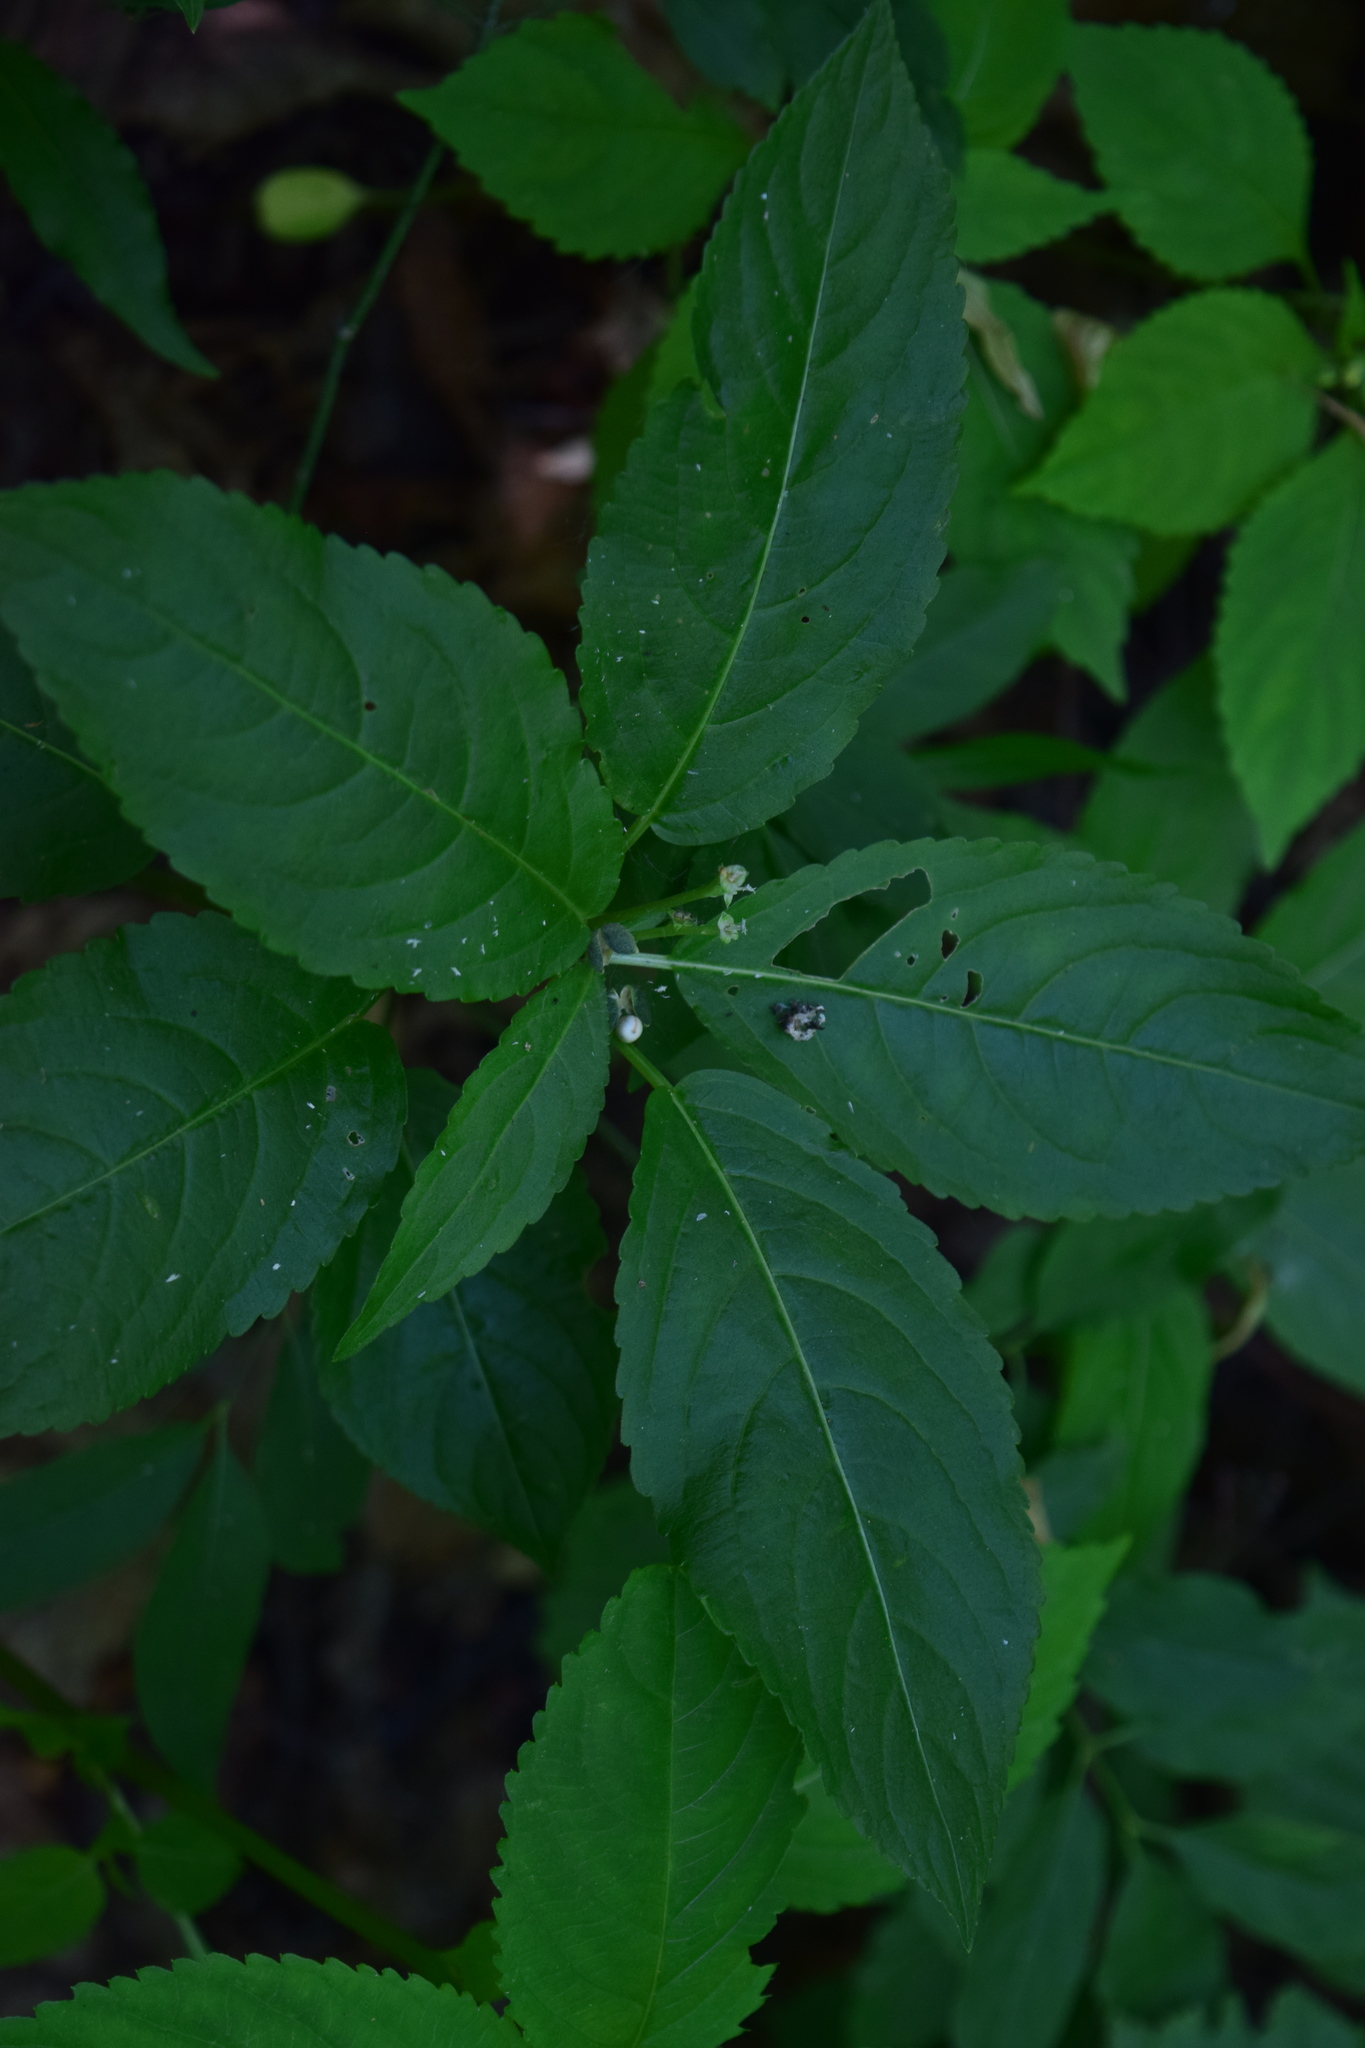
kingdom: Plantae
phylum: Tracheophyta
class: Magnoliopsida
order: Malpighiales
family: Euphorbiaceae
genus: Mercurialis
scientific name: Mercurialis perennis
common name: Dog mercury
